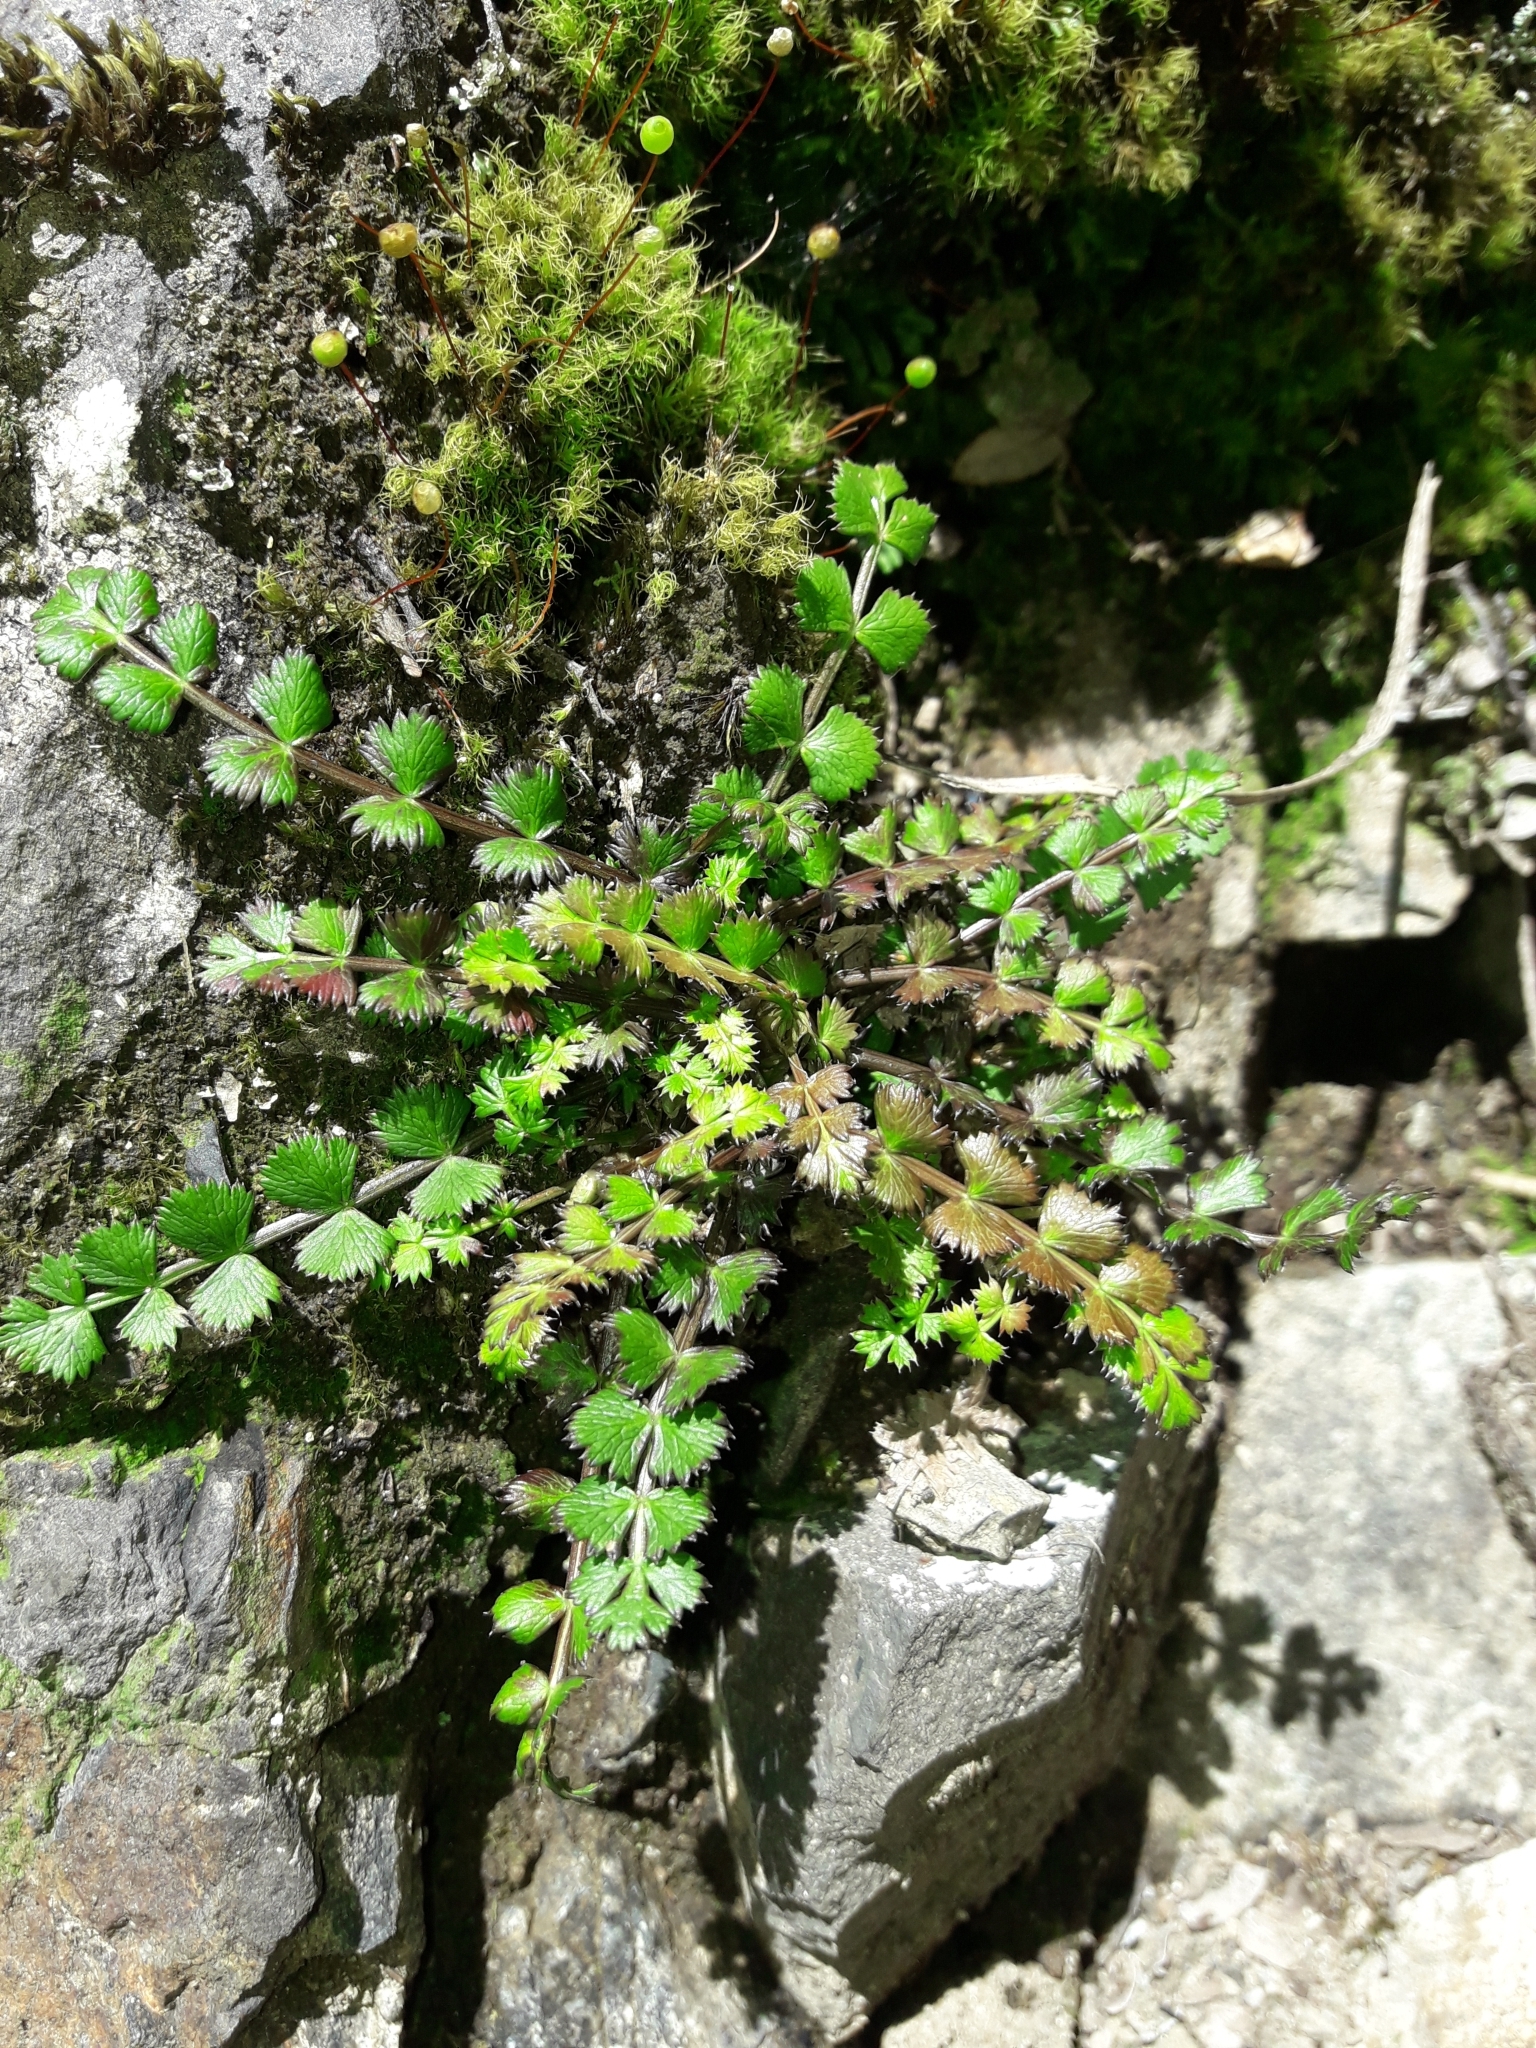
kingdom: Plantae
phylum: Tracheophyta
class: Magnoliopsida
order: Apiales
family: Apiaceae
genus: Anisotome
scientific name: Anisotome aromatica
